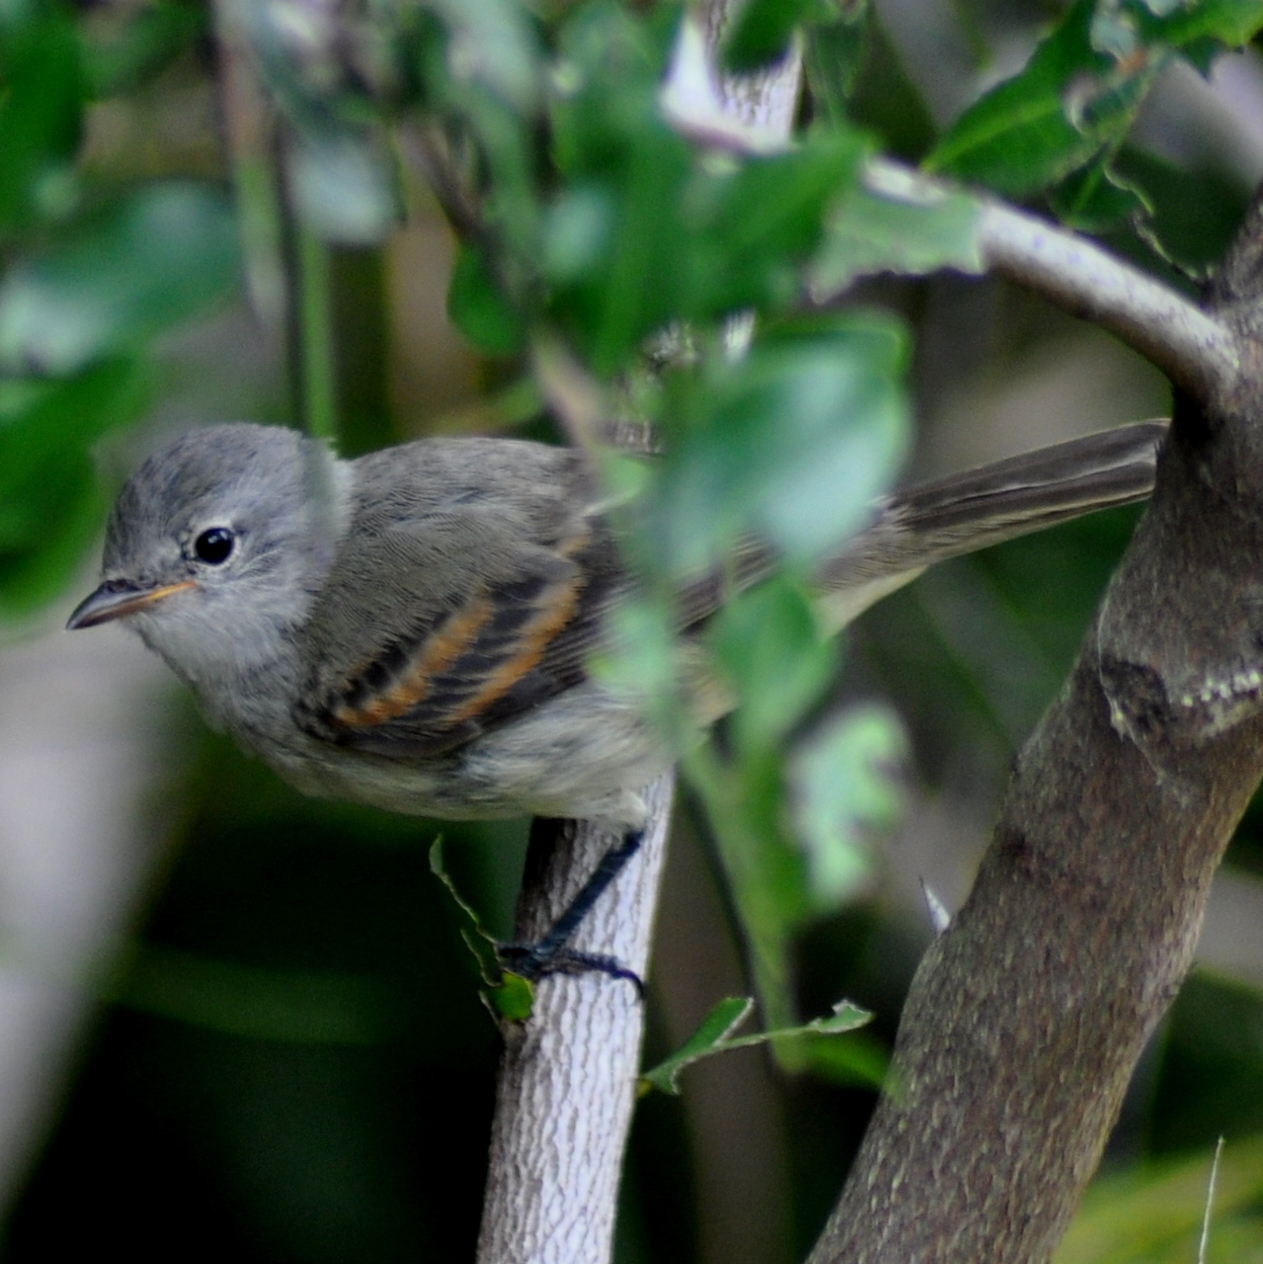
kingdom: Animalia
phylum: Chordata
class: Aves
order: Passeriformes
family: Tyrannidae
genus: Camptostoma
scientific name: Camptostoma obsoletum
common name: Southern beardless-tyrannulet
